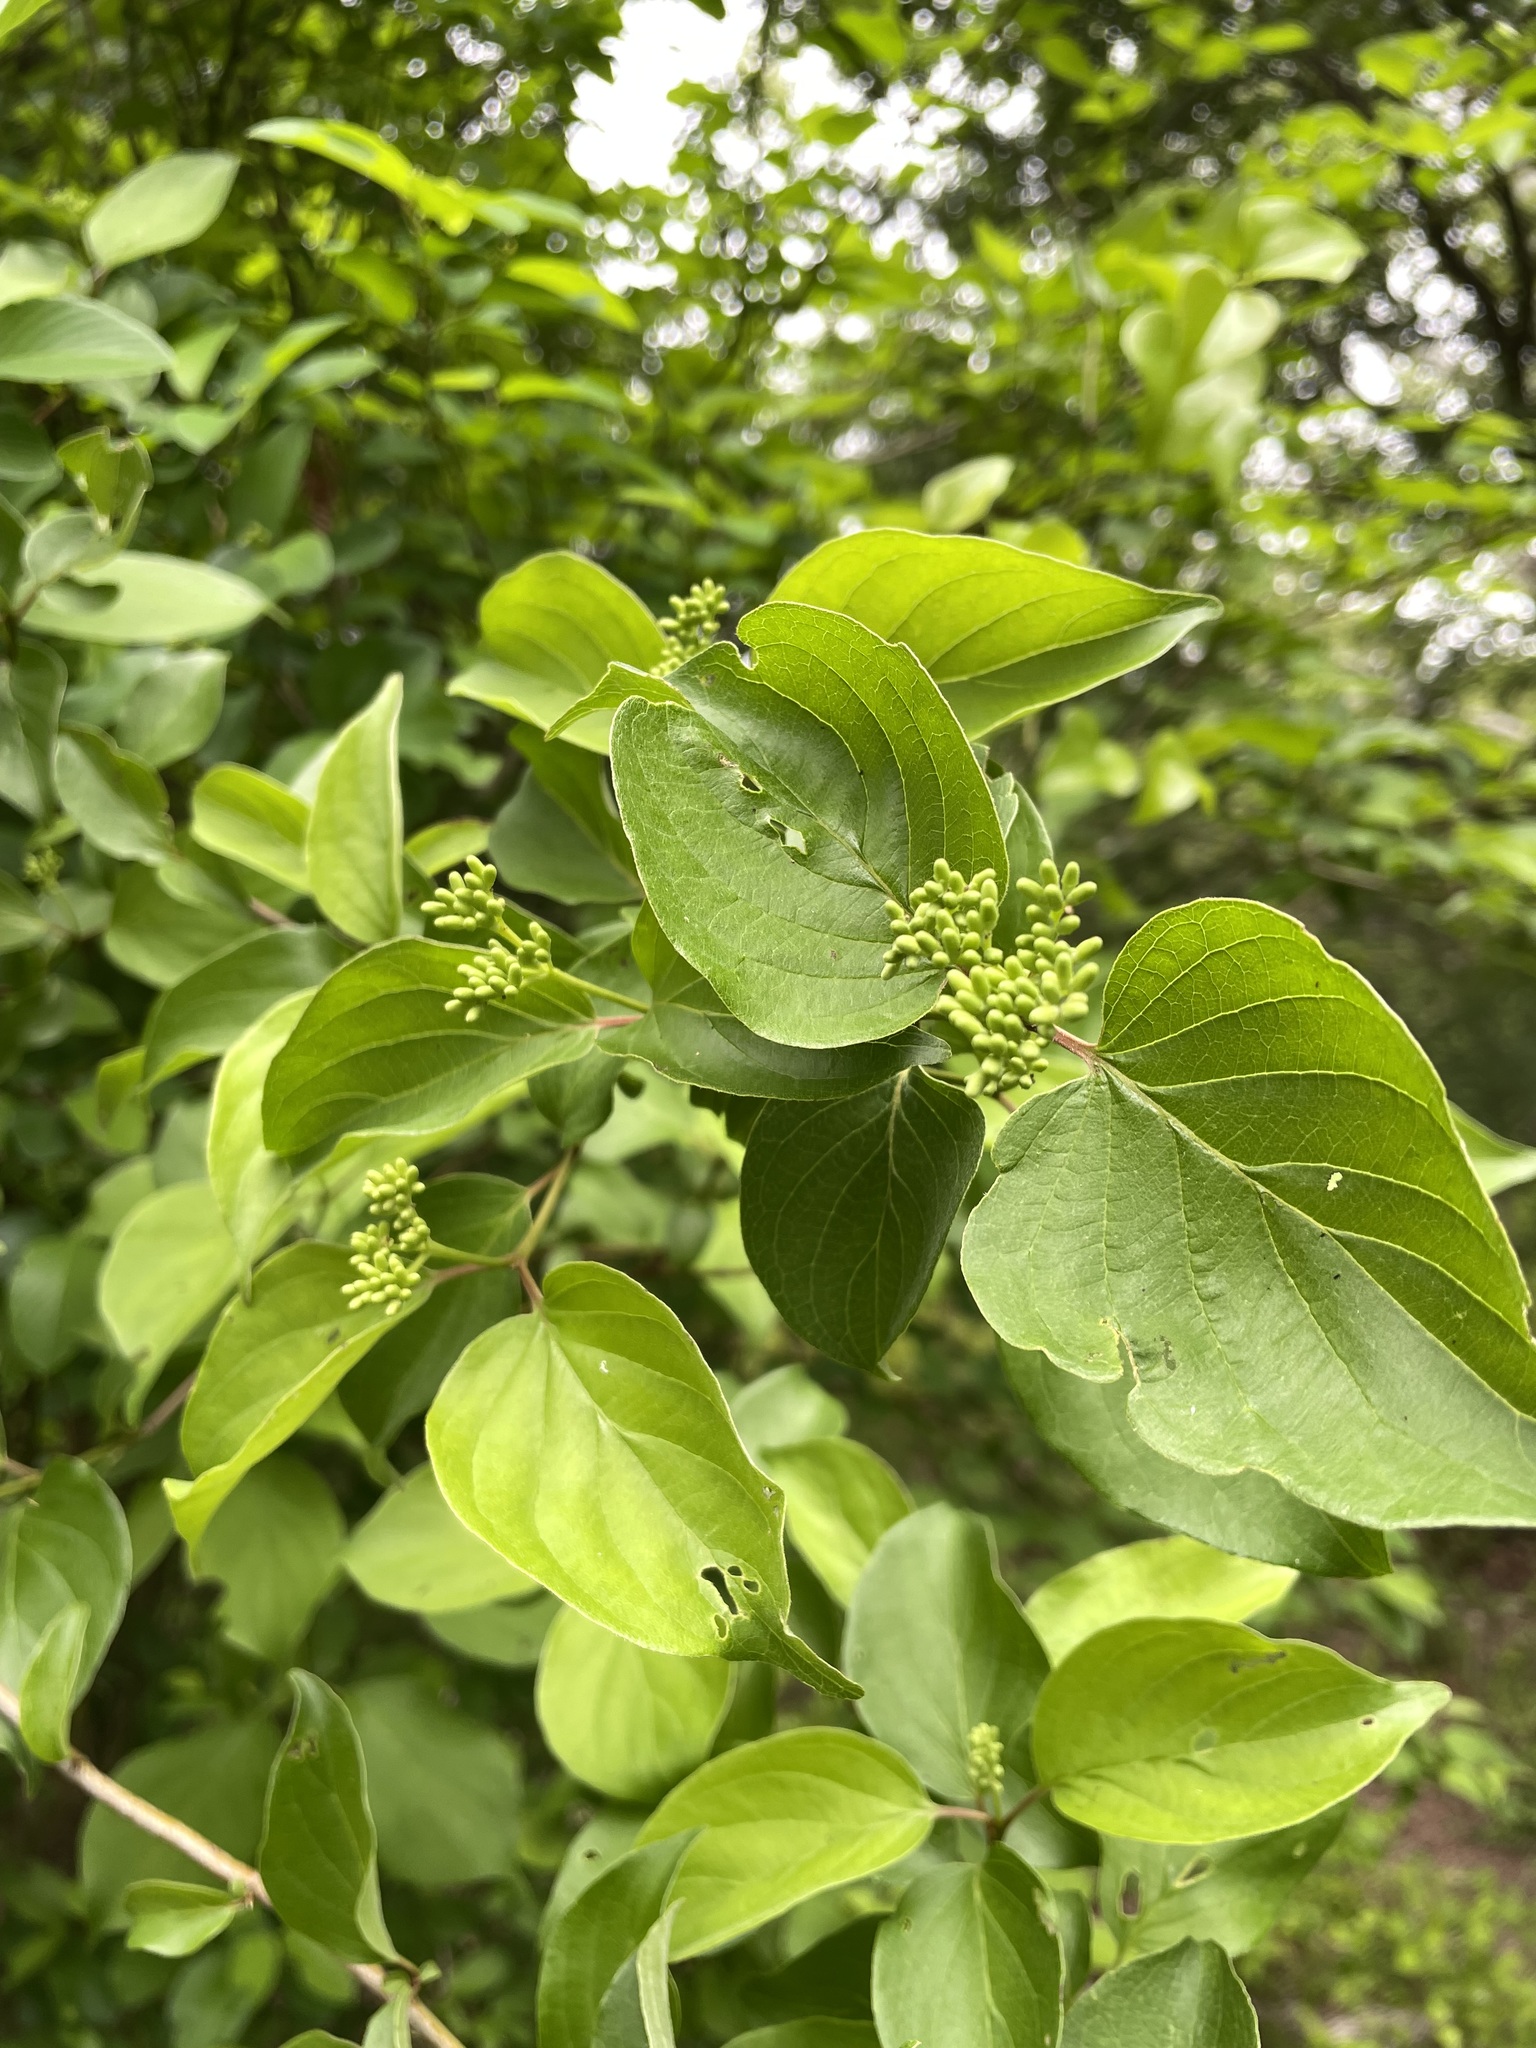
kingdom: Plantae
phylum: Tracheophyta
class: Magnoliopsida
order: Cornales
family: Cornaceae
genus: Cornus
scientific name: Cornus drummondii
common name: Rough-leaf dogwood
